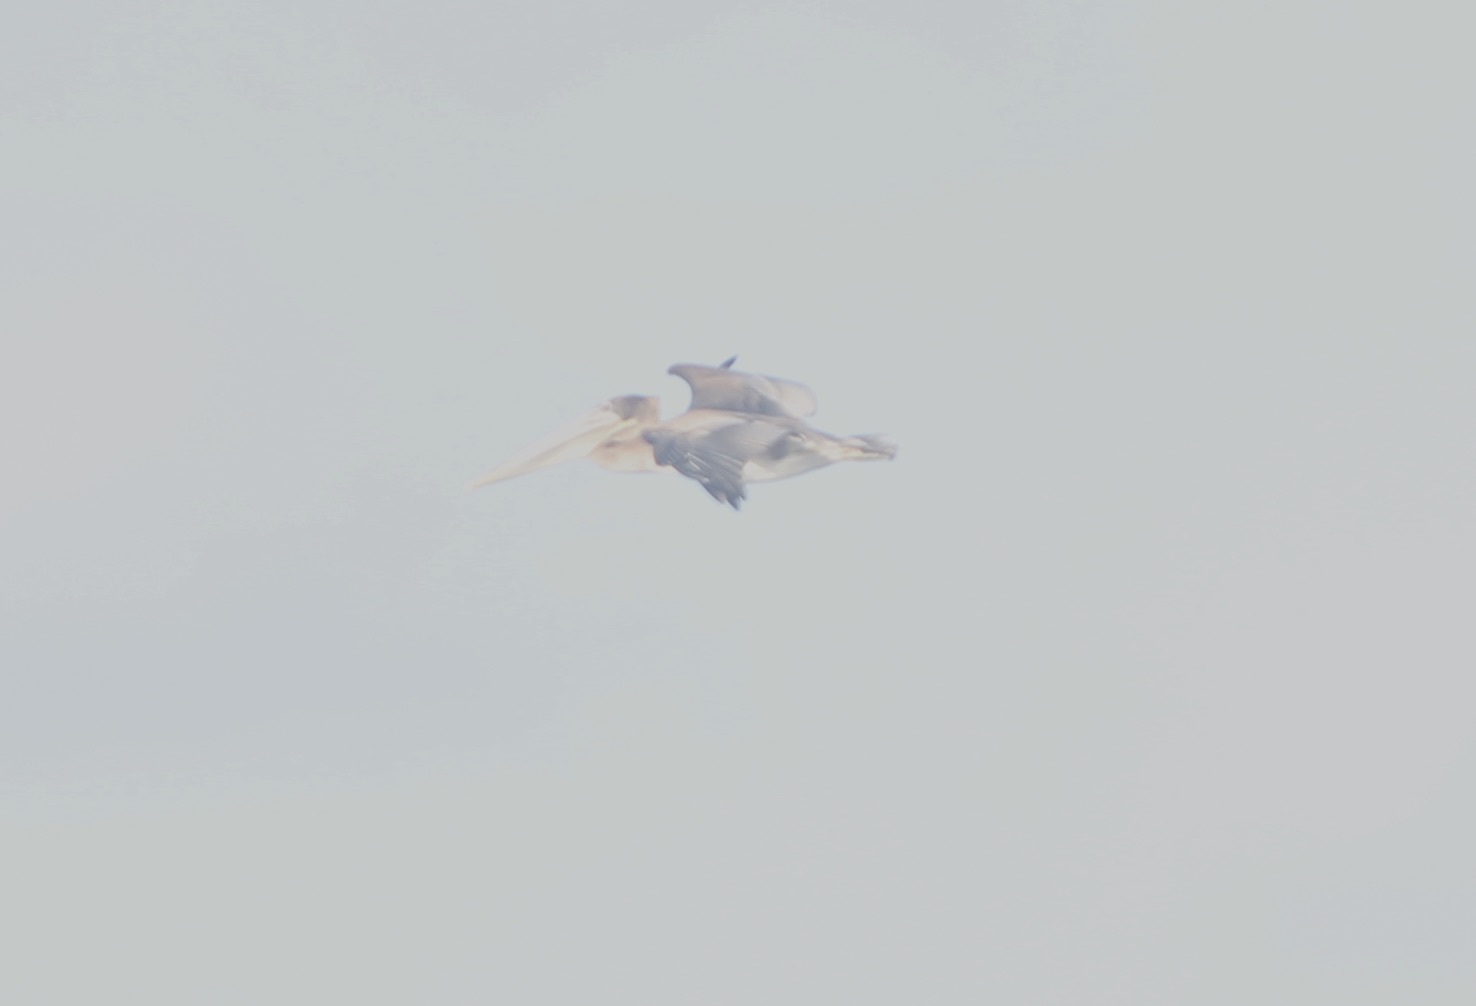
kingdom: Animalia
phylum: Chordata
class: Aves
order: Pelecaniformes
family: Pelecanidae
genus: Pelecanus
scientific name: Pelecanus occidentalis
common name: Brown pelican
